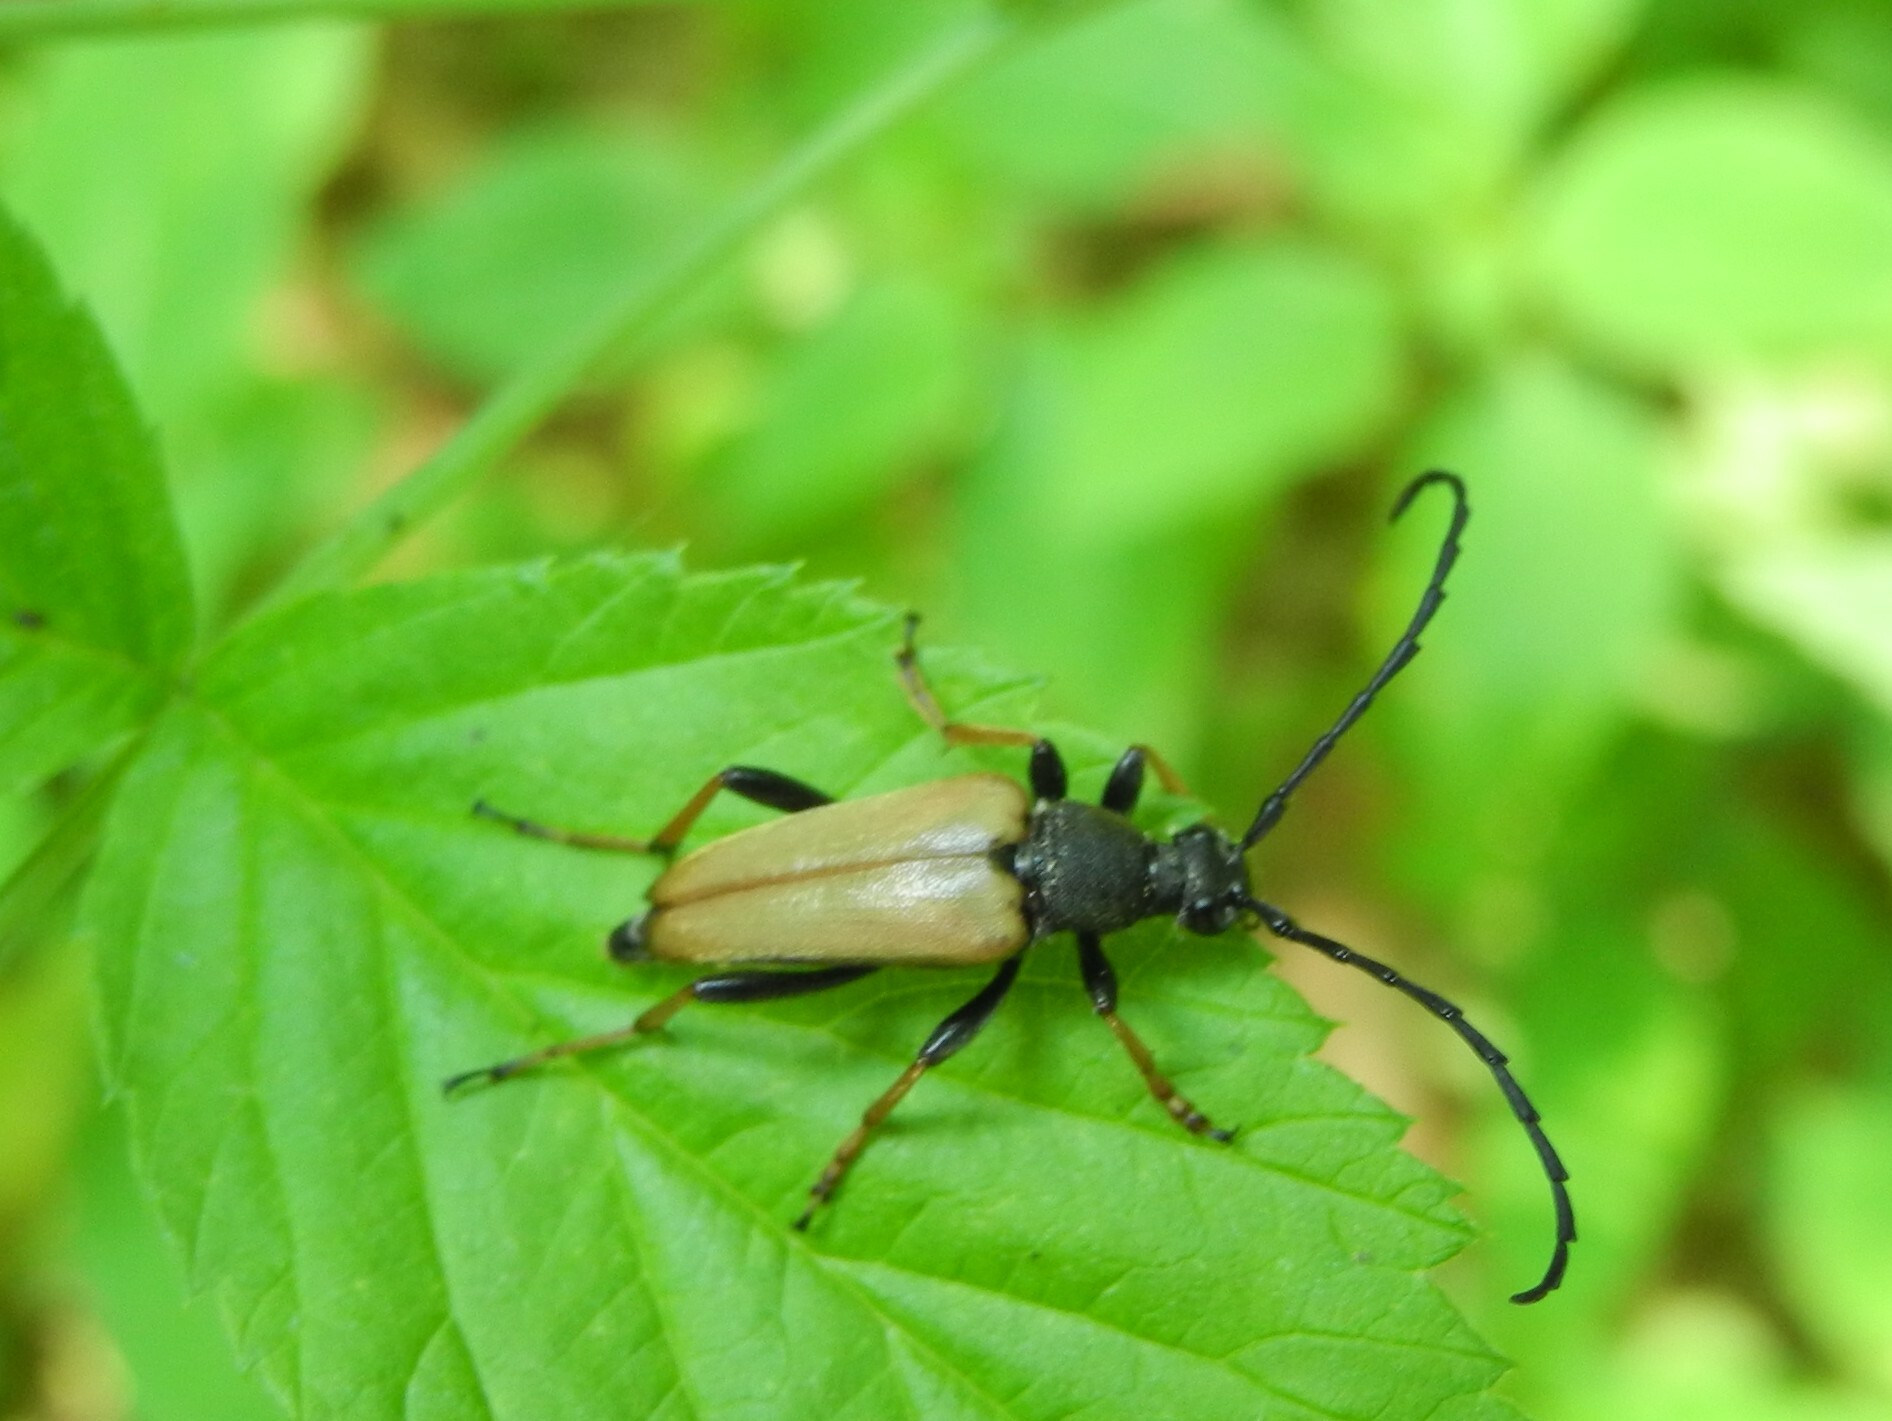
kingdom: Animalia
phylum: Arthropoda
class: Insecta
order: Coleoptera
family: Cerambycidae
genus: Stictoleptura
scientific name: Stictoleptura rubra
